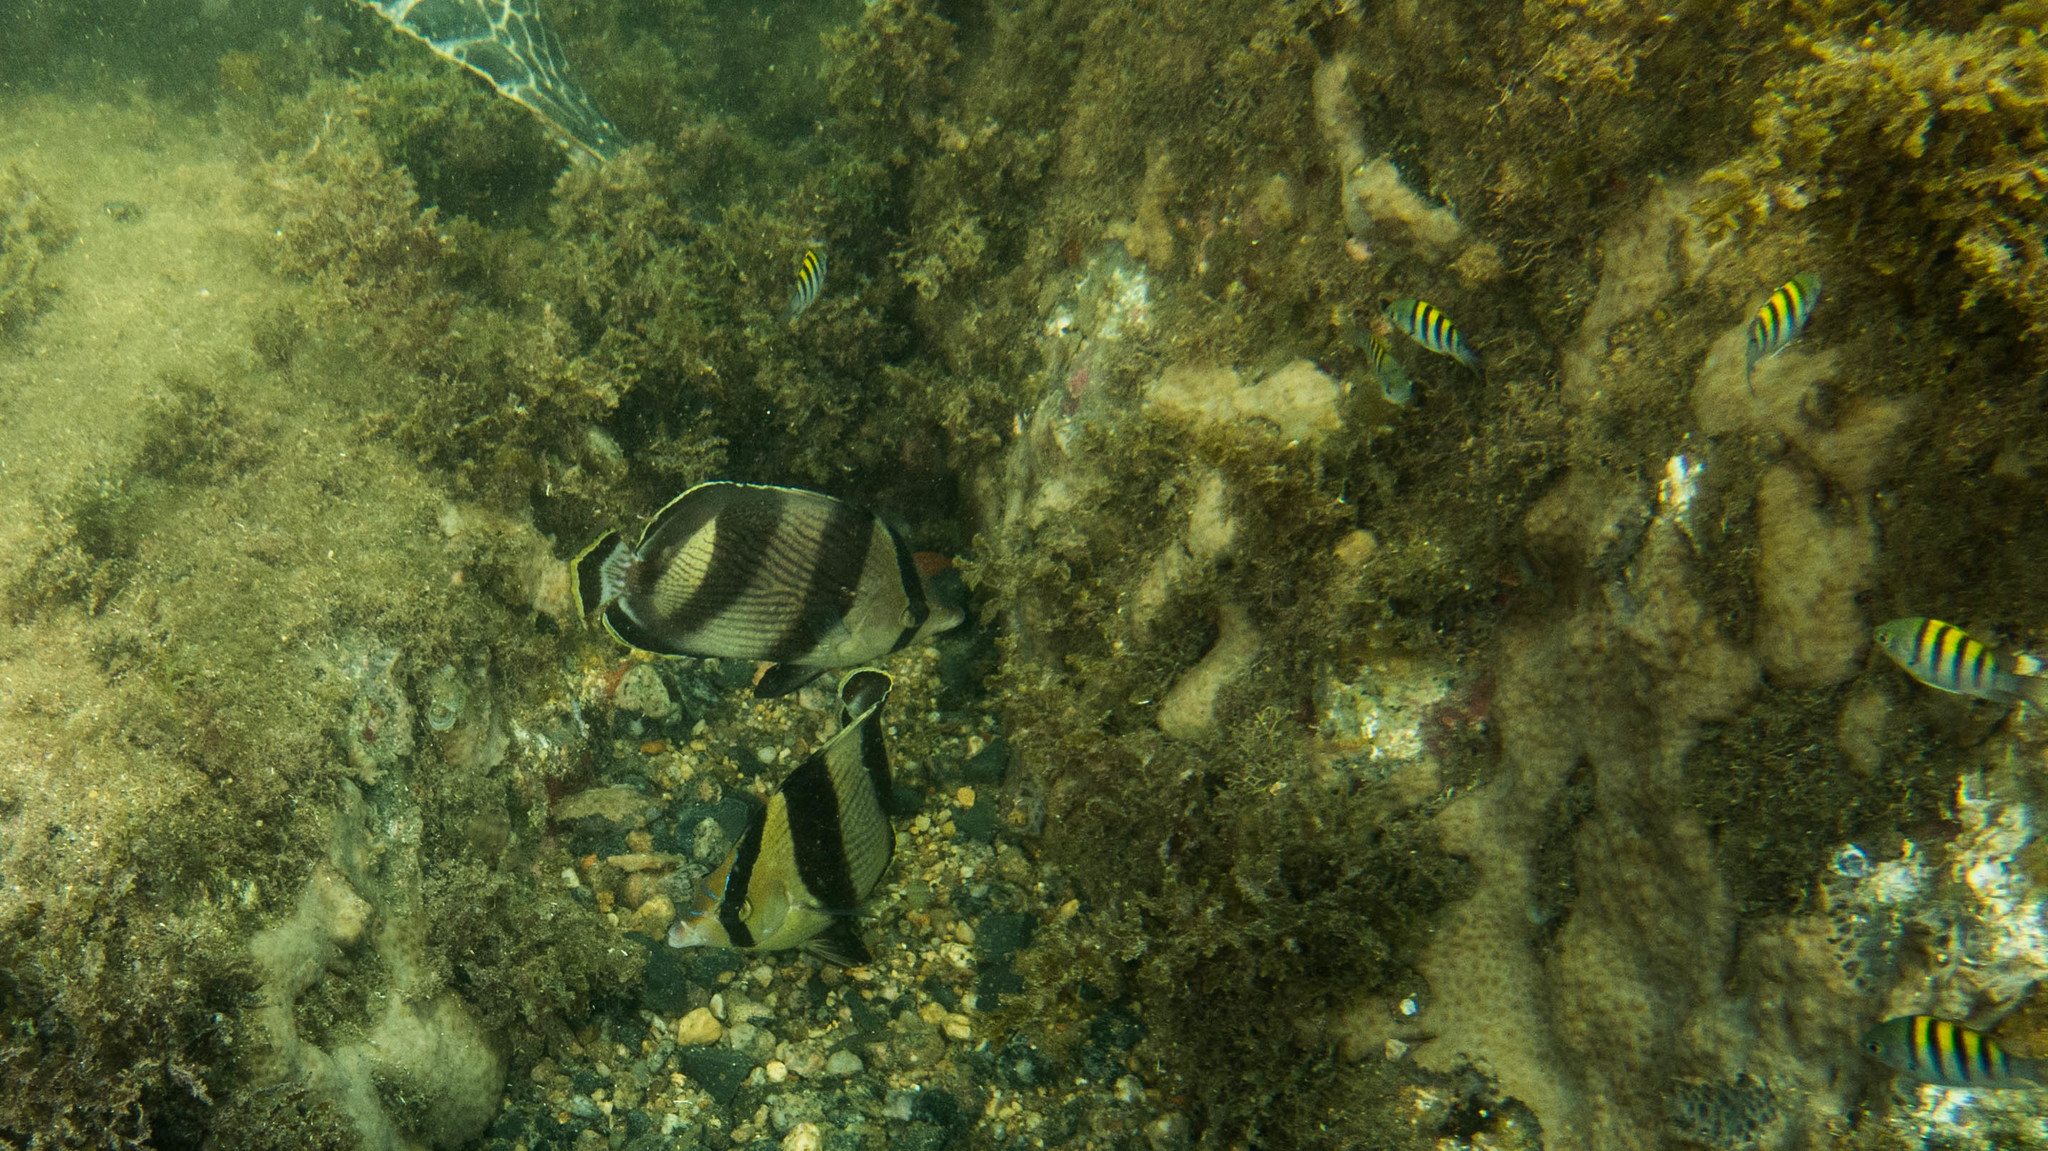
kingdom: Animalia
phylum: Chordata
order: Perciformes
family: Chaetodontidae
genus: Chaetodon
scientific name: Chaetodon striatus
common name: Banded butterflyfish
